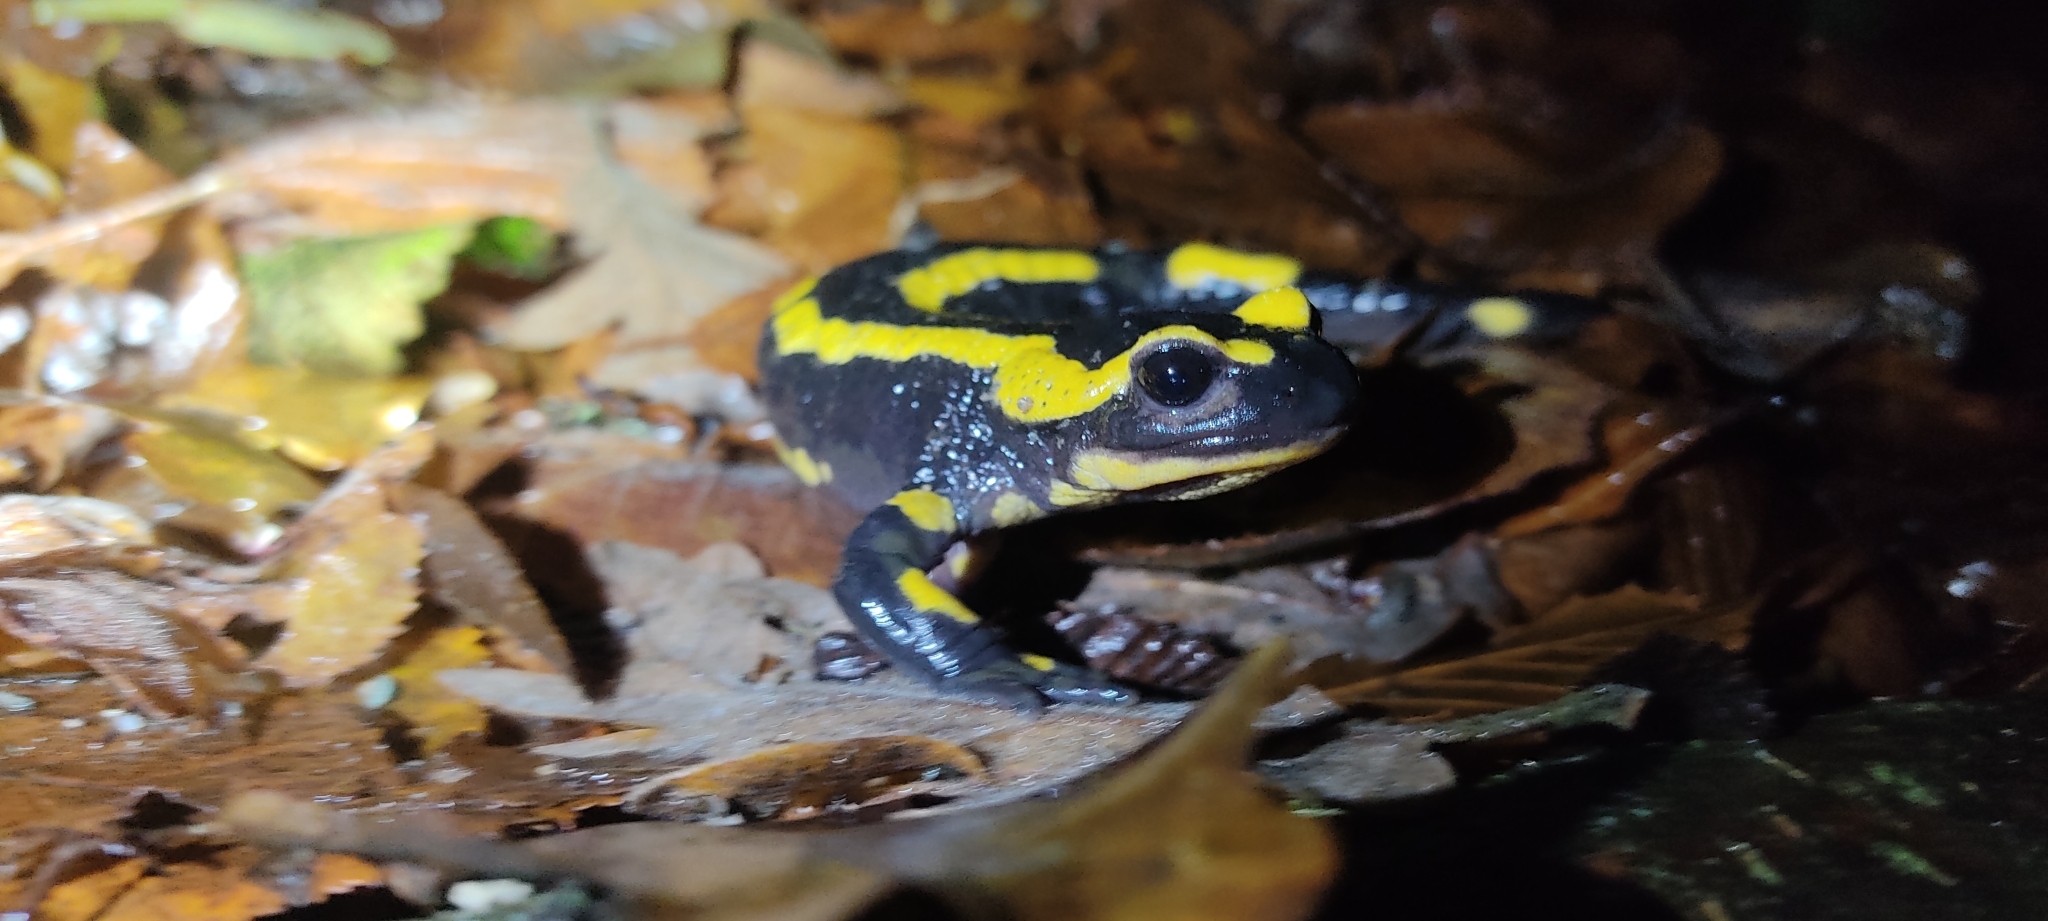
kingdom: Animalia
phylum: Chordata
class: Amphibia
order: Caudata
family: Salamandridae
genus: Salamandra
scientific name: Salamandra salamandra
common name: Fire salamander
